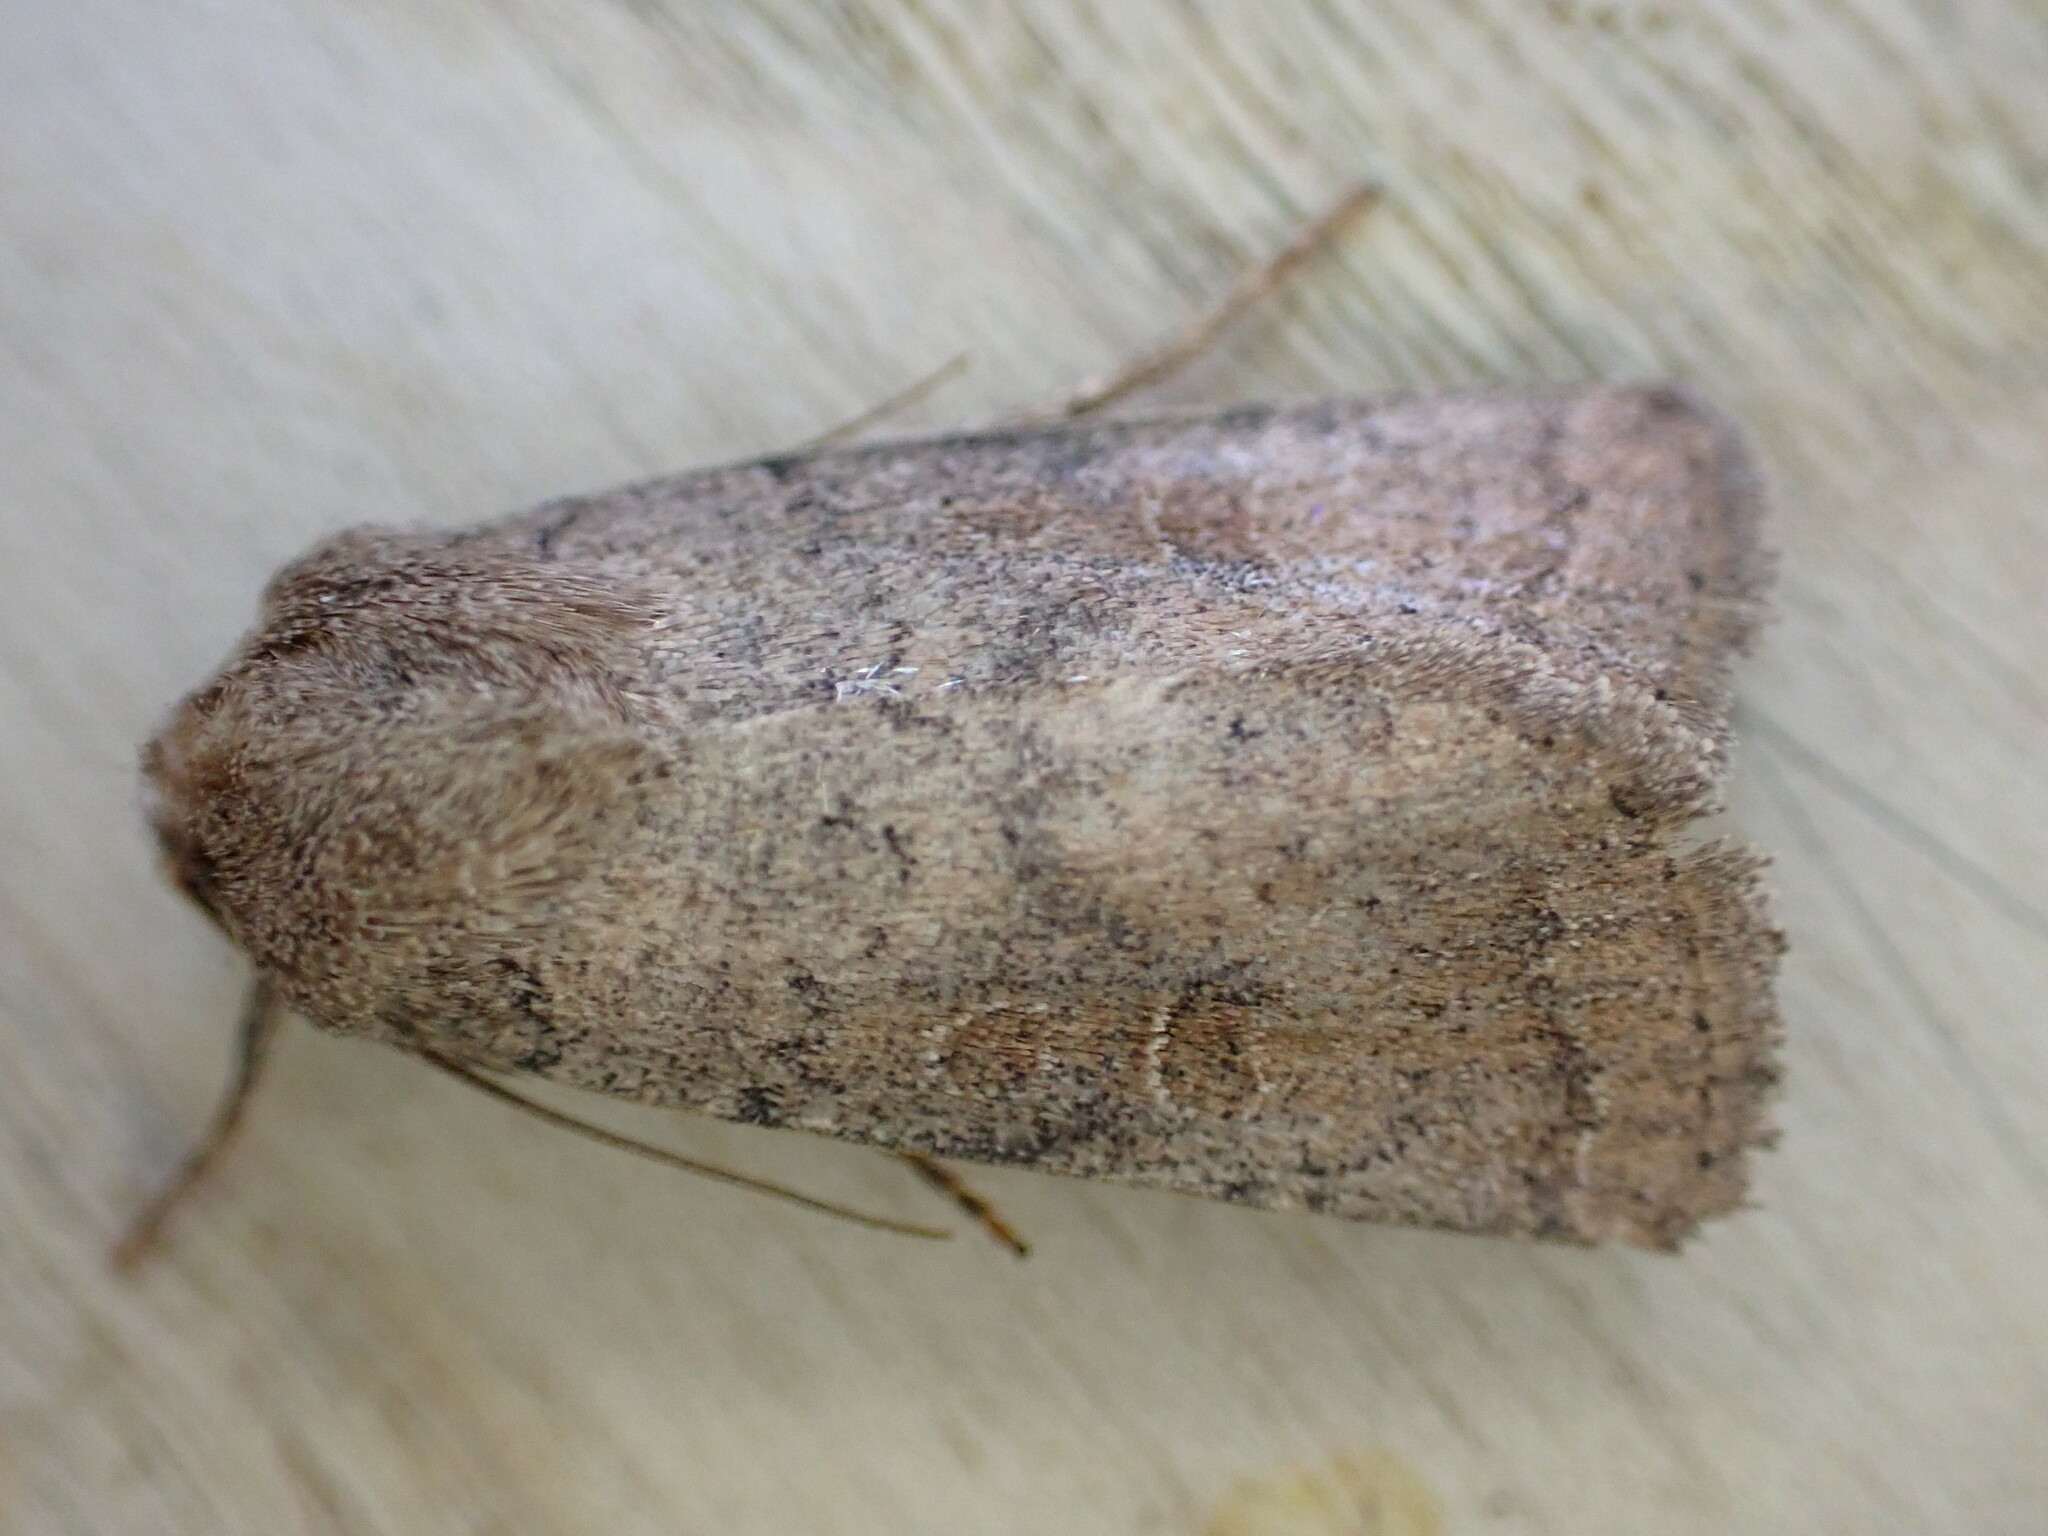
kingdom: Animalia
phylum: Arthropoda
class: Insecta
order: Lepidoptera
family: Noctuidae
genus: Hoplodrina
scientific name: Hoplodrina octogenaria
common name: Uncertain
